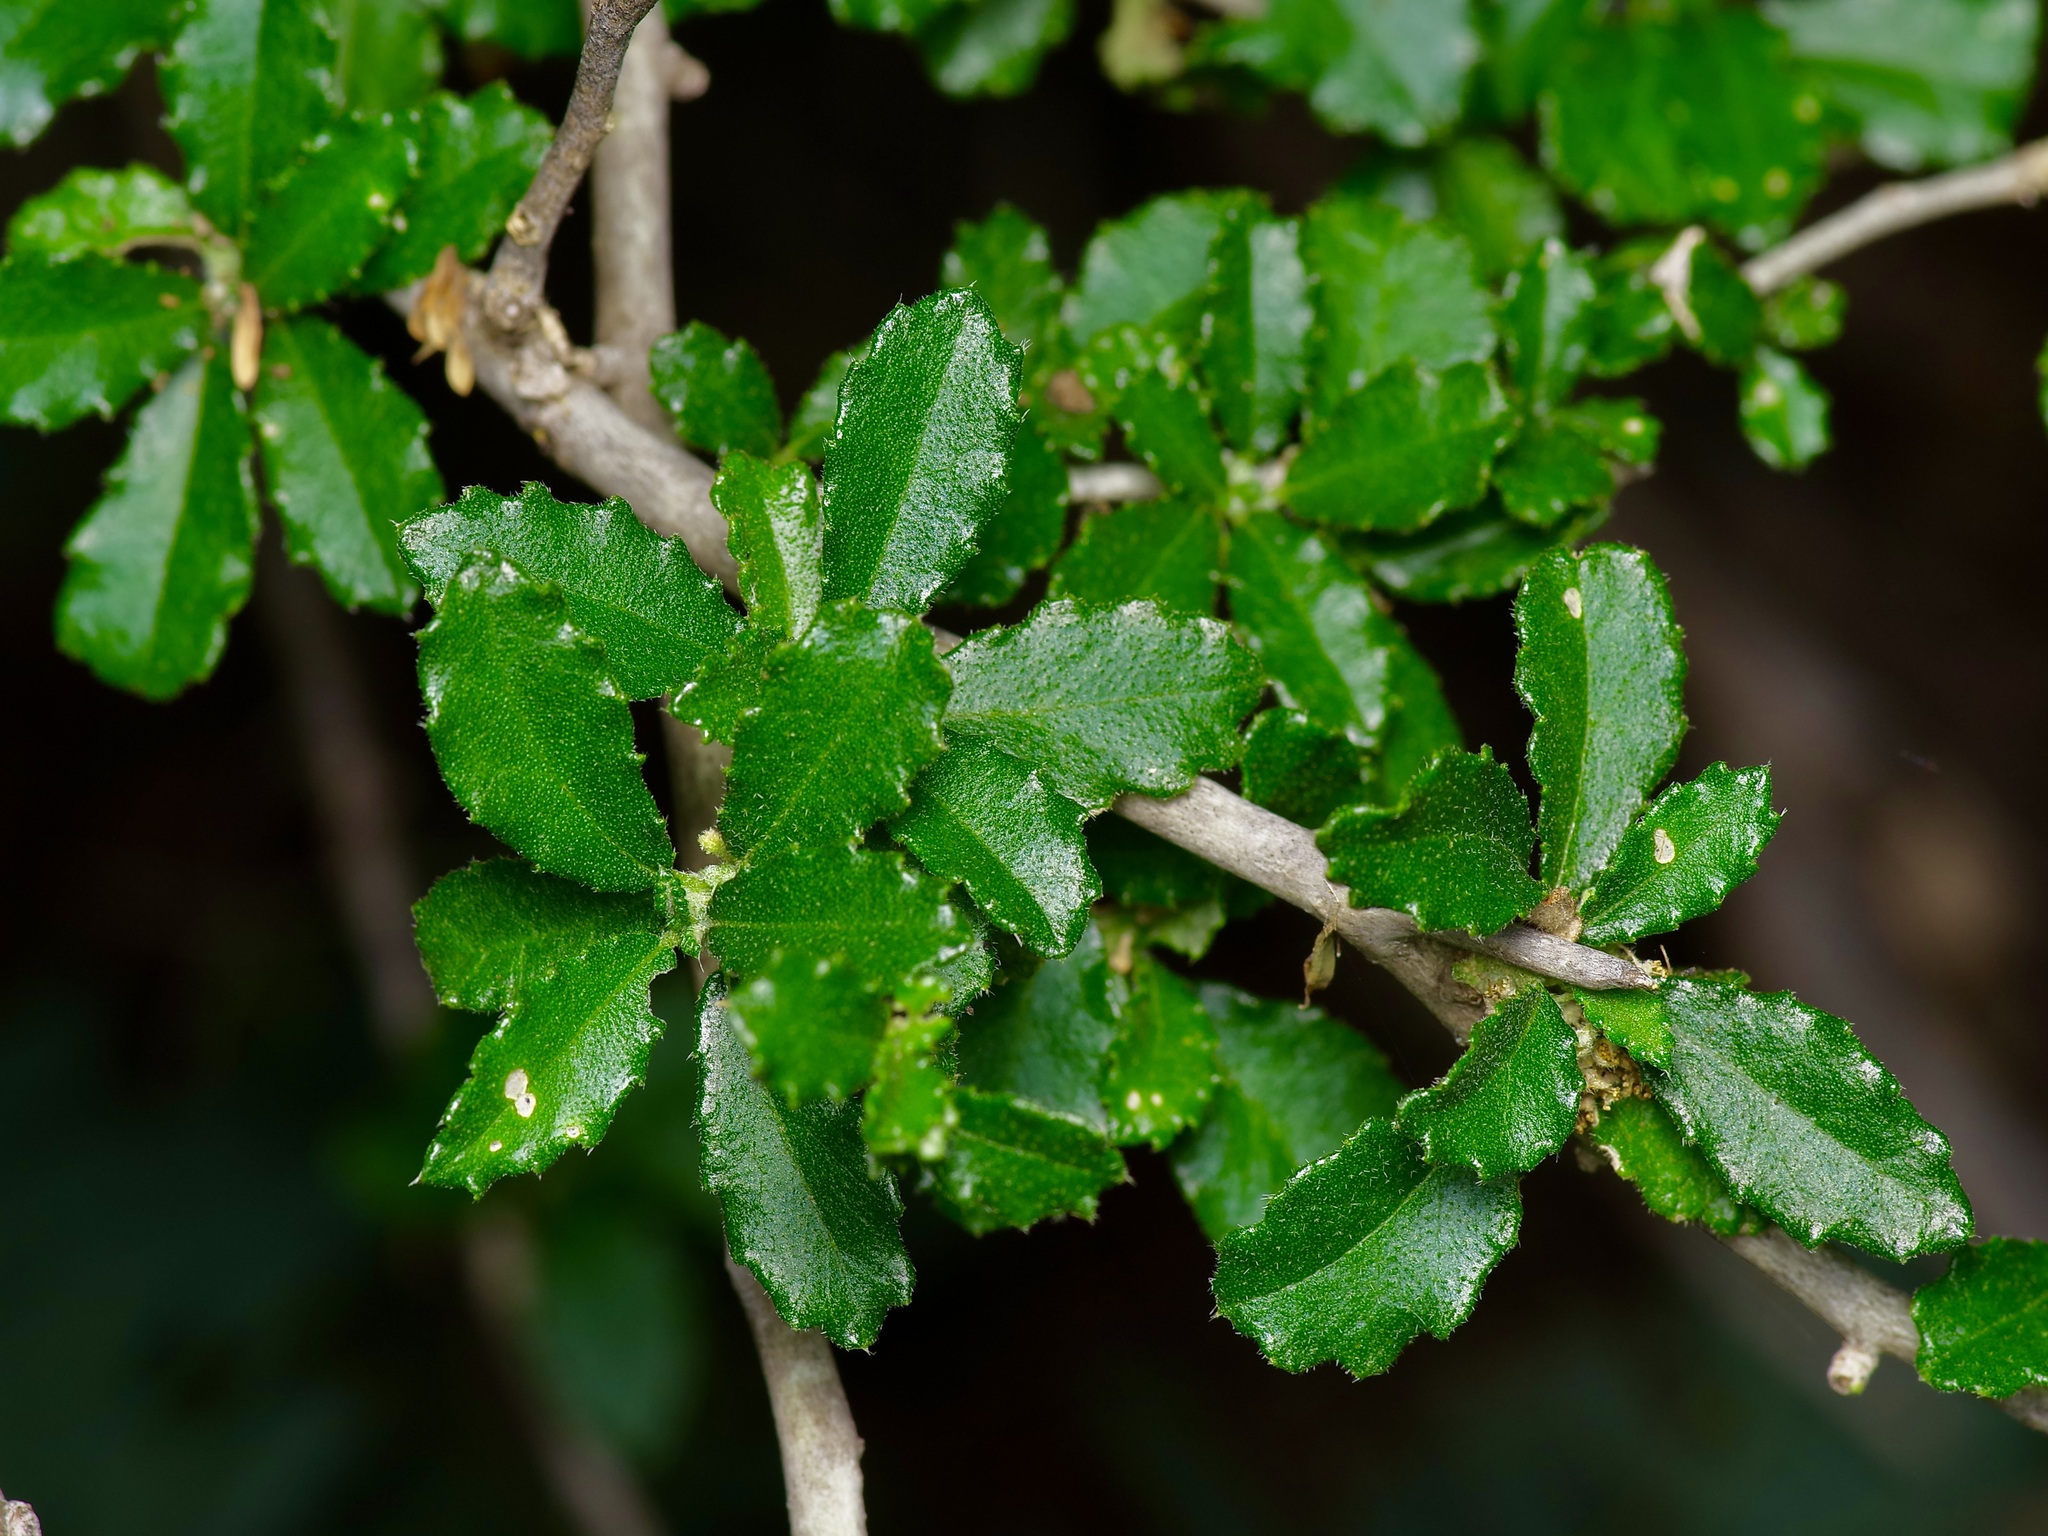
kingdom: Plantae
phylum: Tracheophyta
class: Magnoliopsida
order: Malpighiales
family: Euphorbiaceae
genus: Bernardia
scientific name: Bernardia myricifolia
